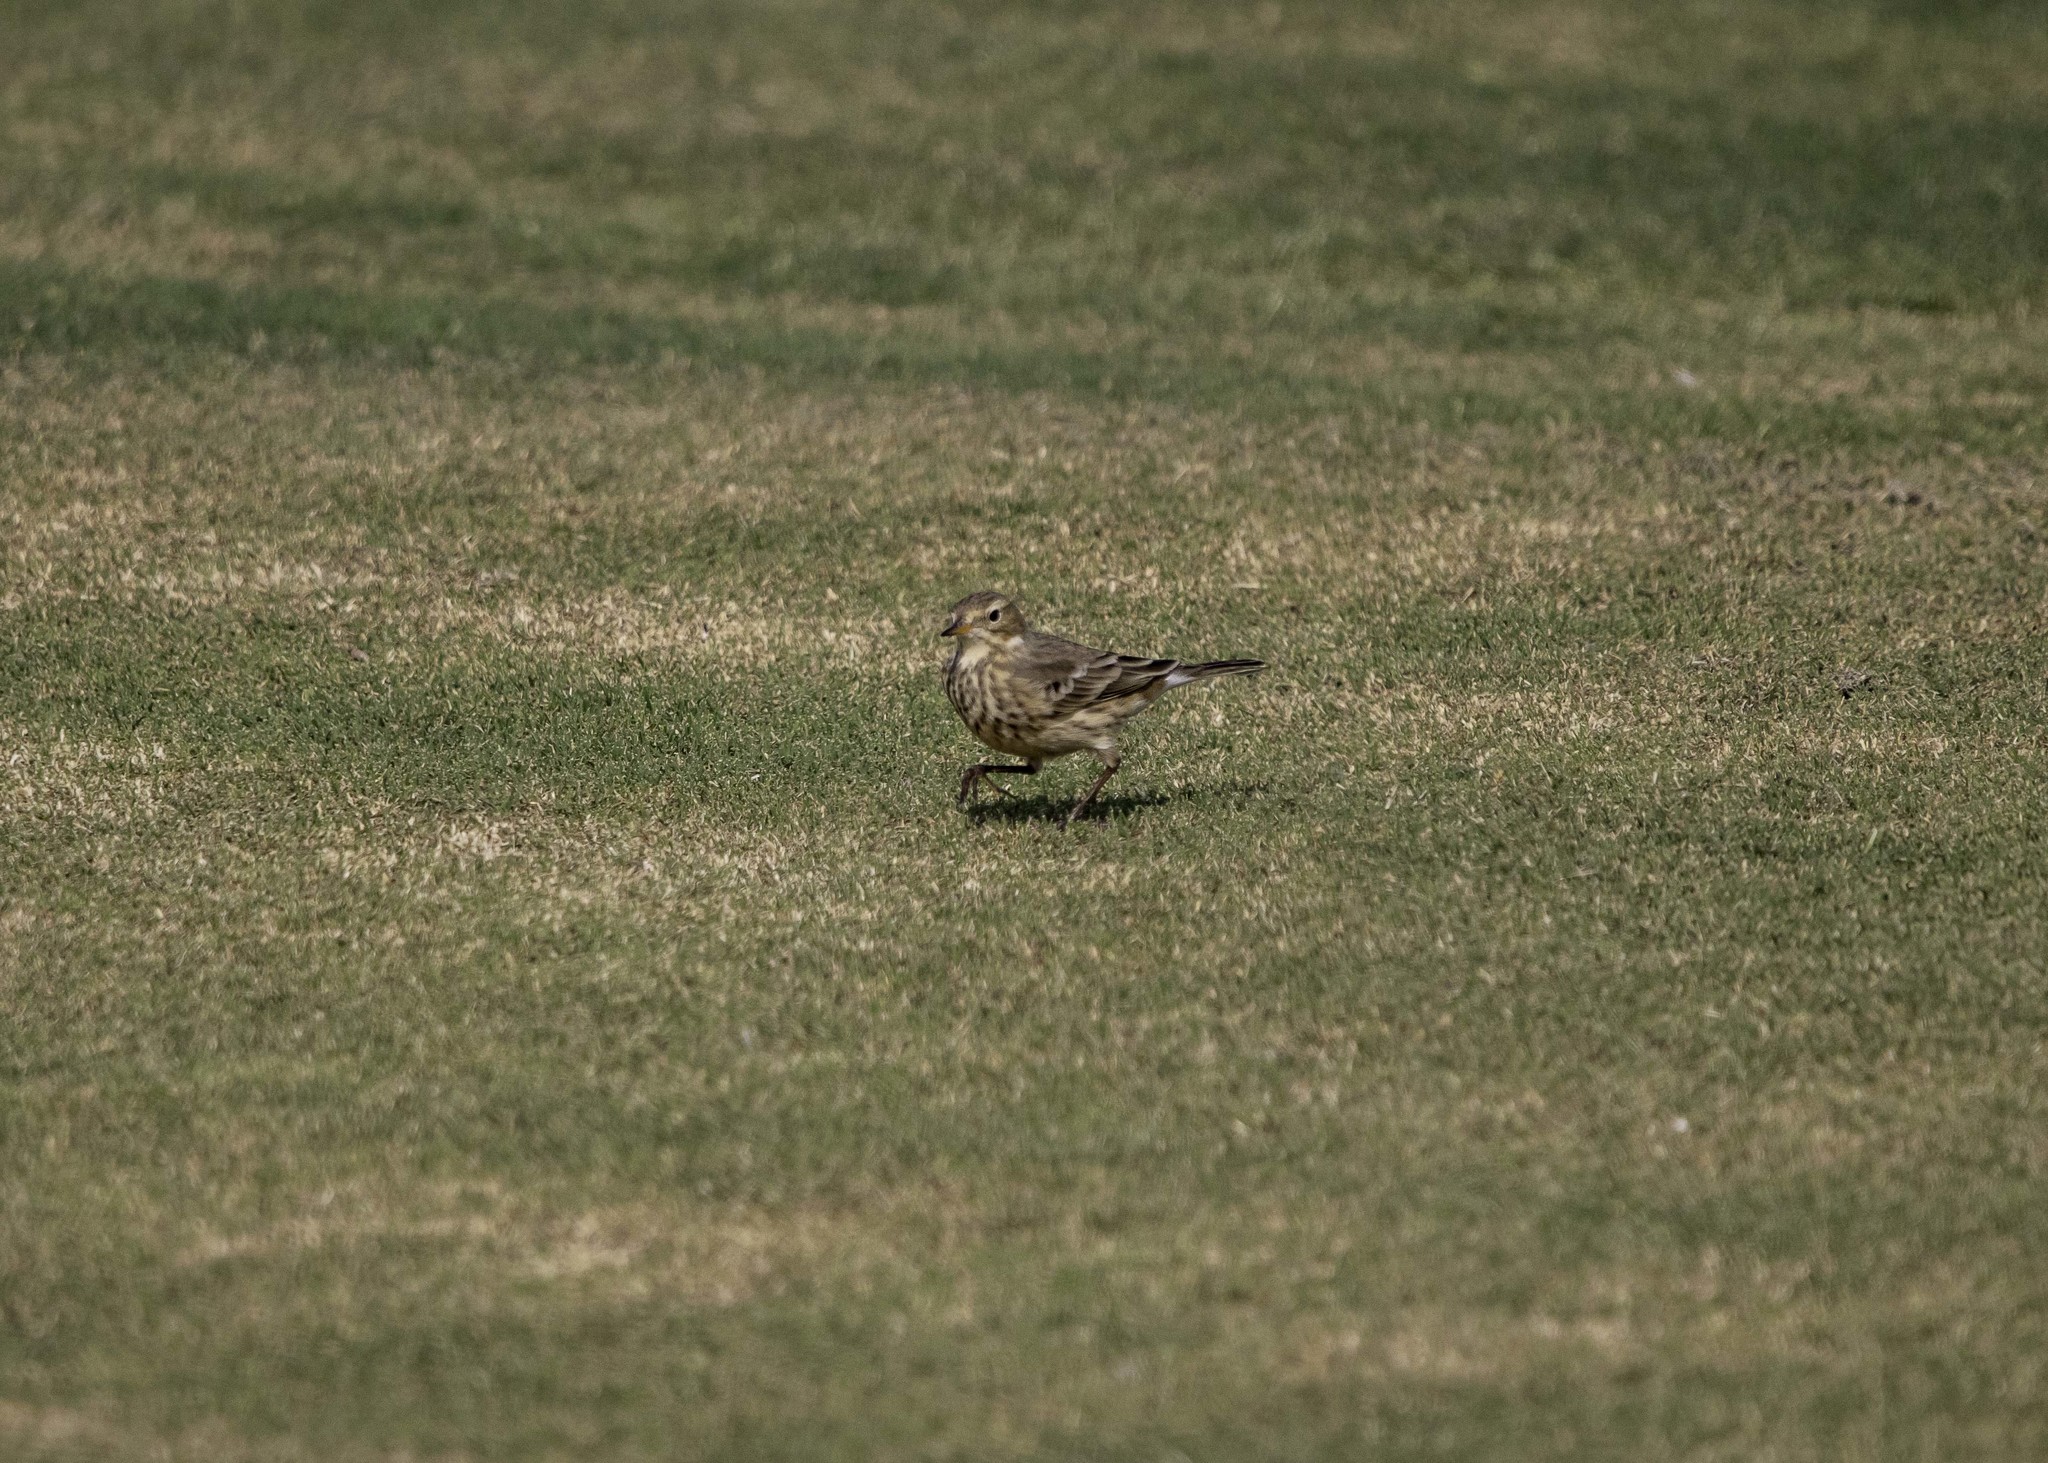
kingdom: Animalia
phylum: Chordata
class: Aves
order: Passeriformes
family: Motacillidae
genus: Anthus
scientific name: Anthus rubescens
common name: Buff-bellied pipit
